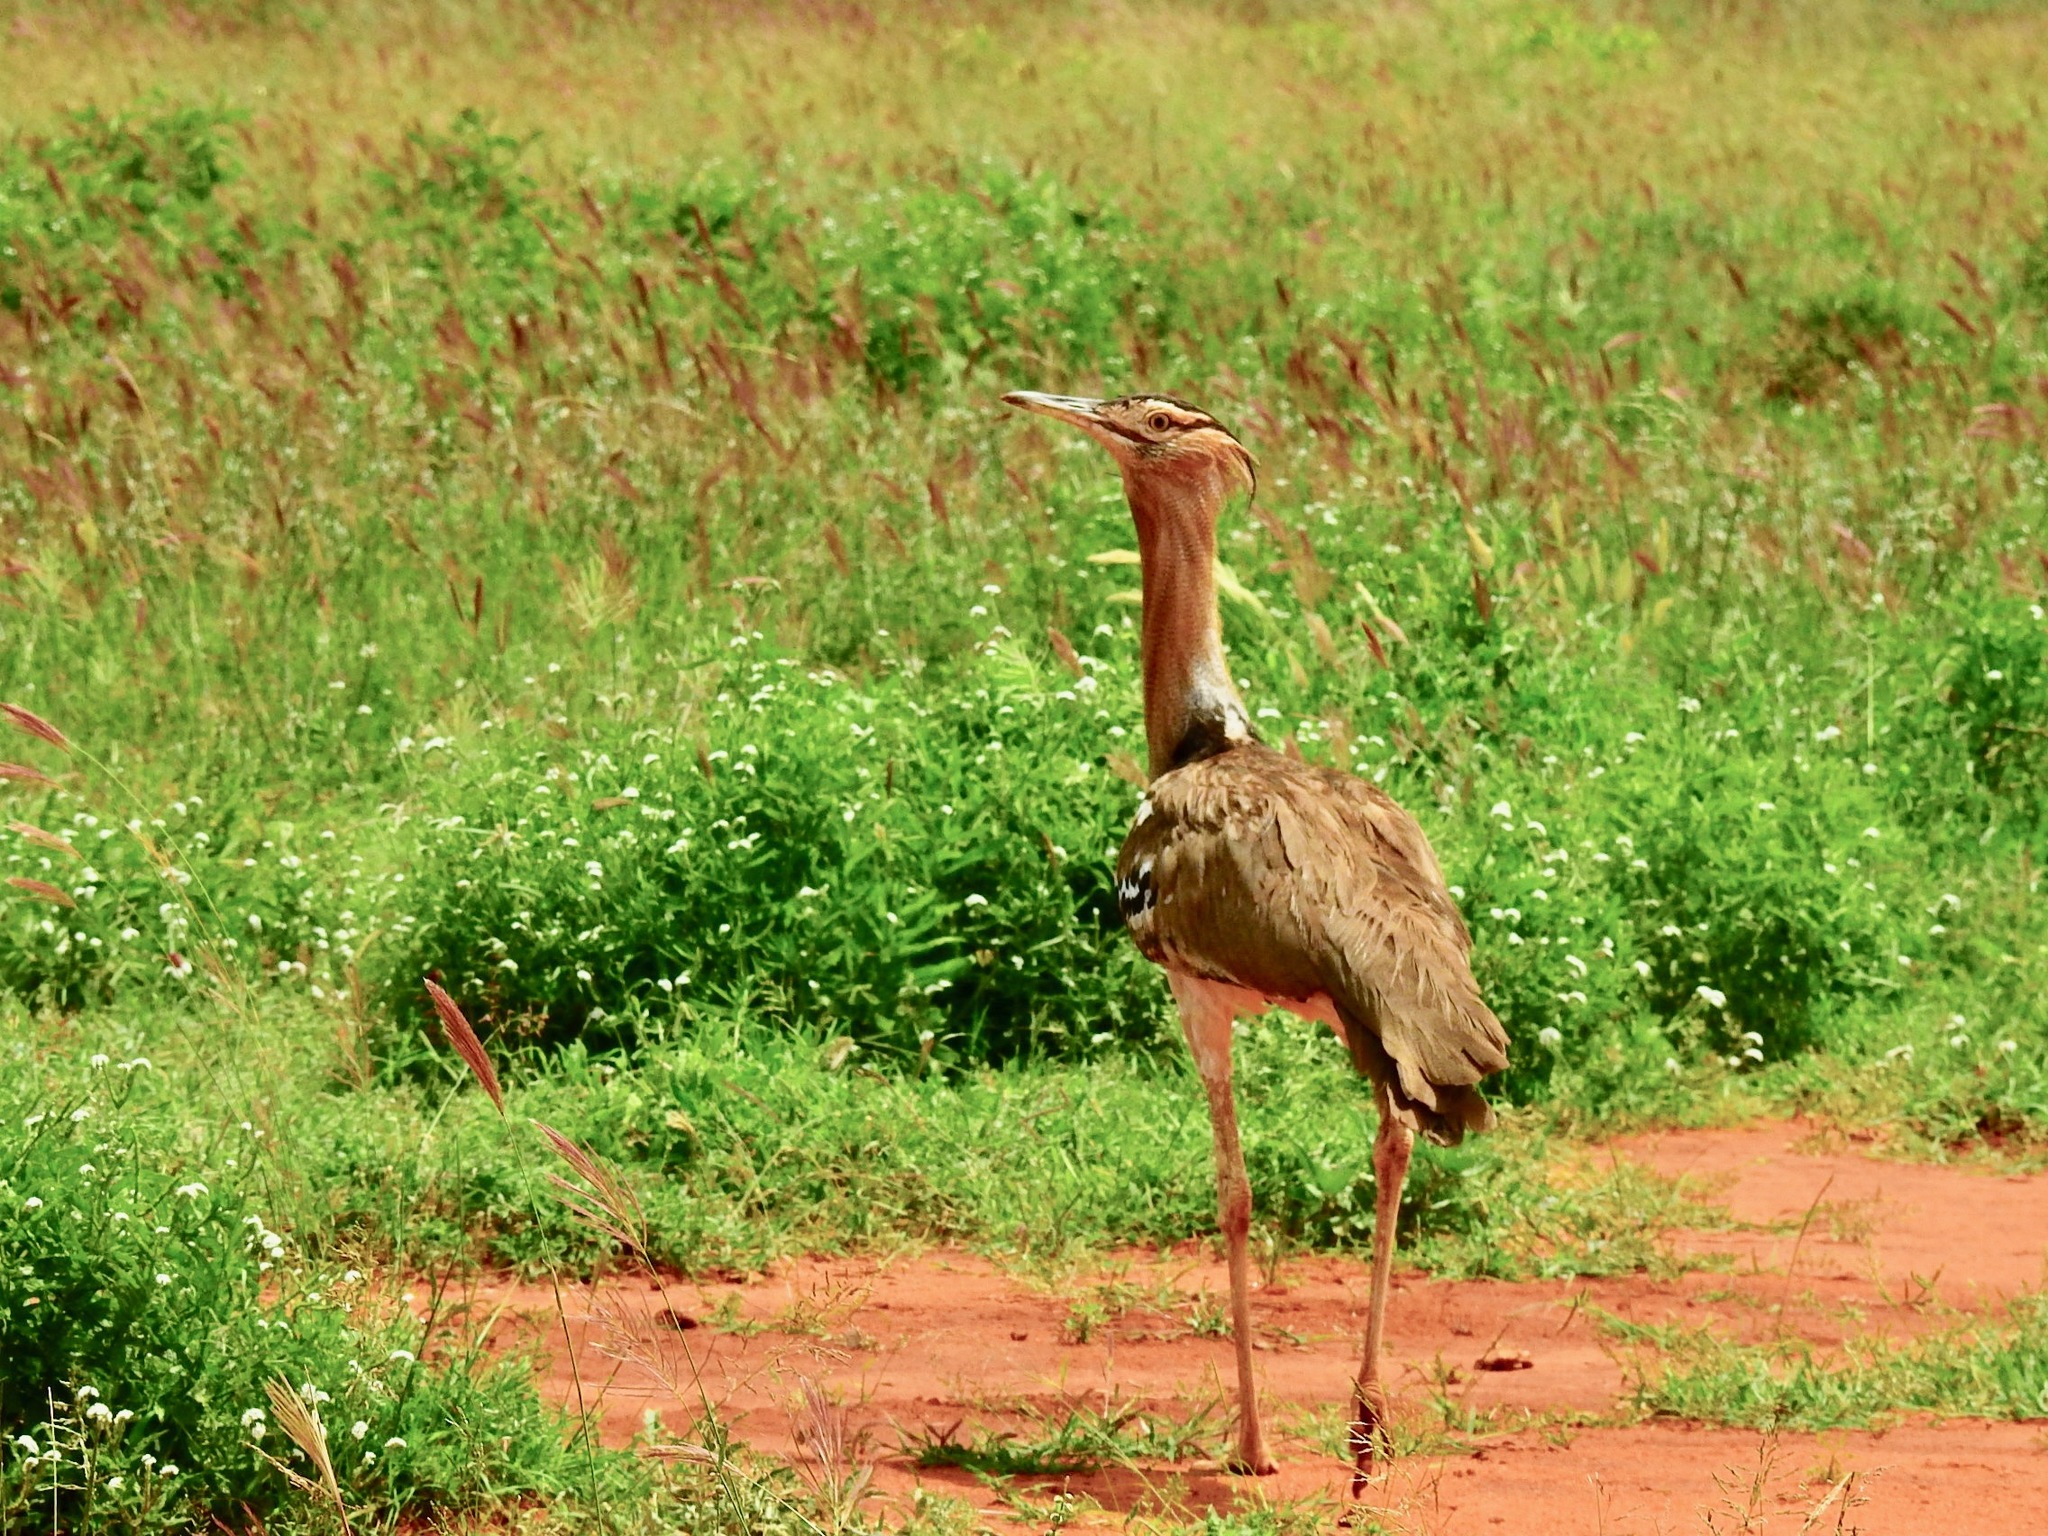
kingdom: Animalia
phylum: Chordata
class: Aves
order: Otidiformes
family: Otididae
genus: Ardeotis
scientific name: Ardeotis kori
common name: Kori bustard
